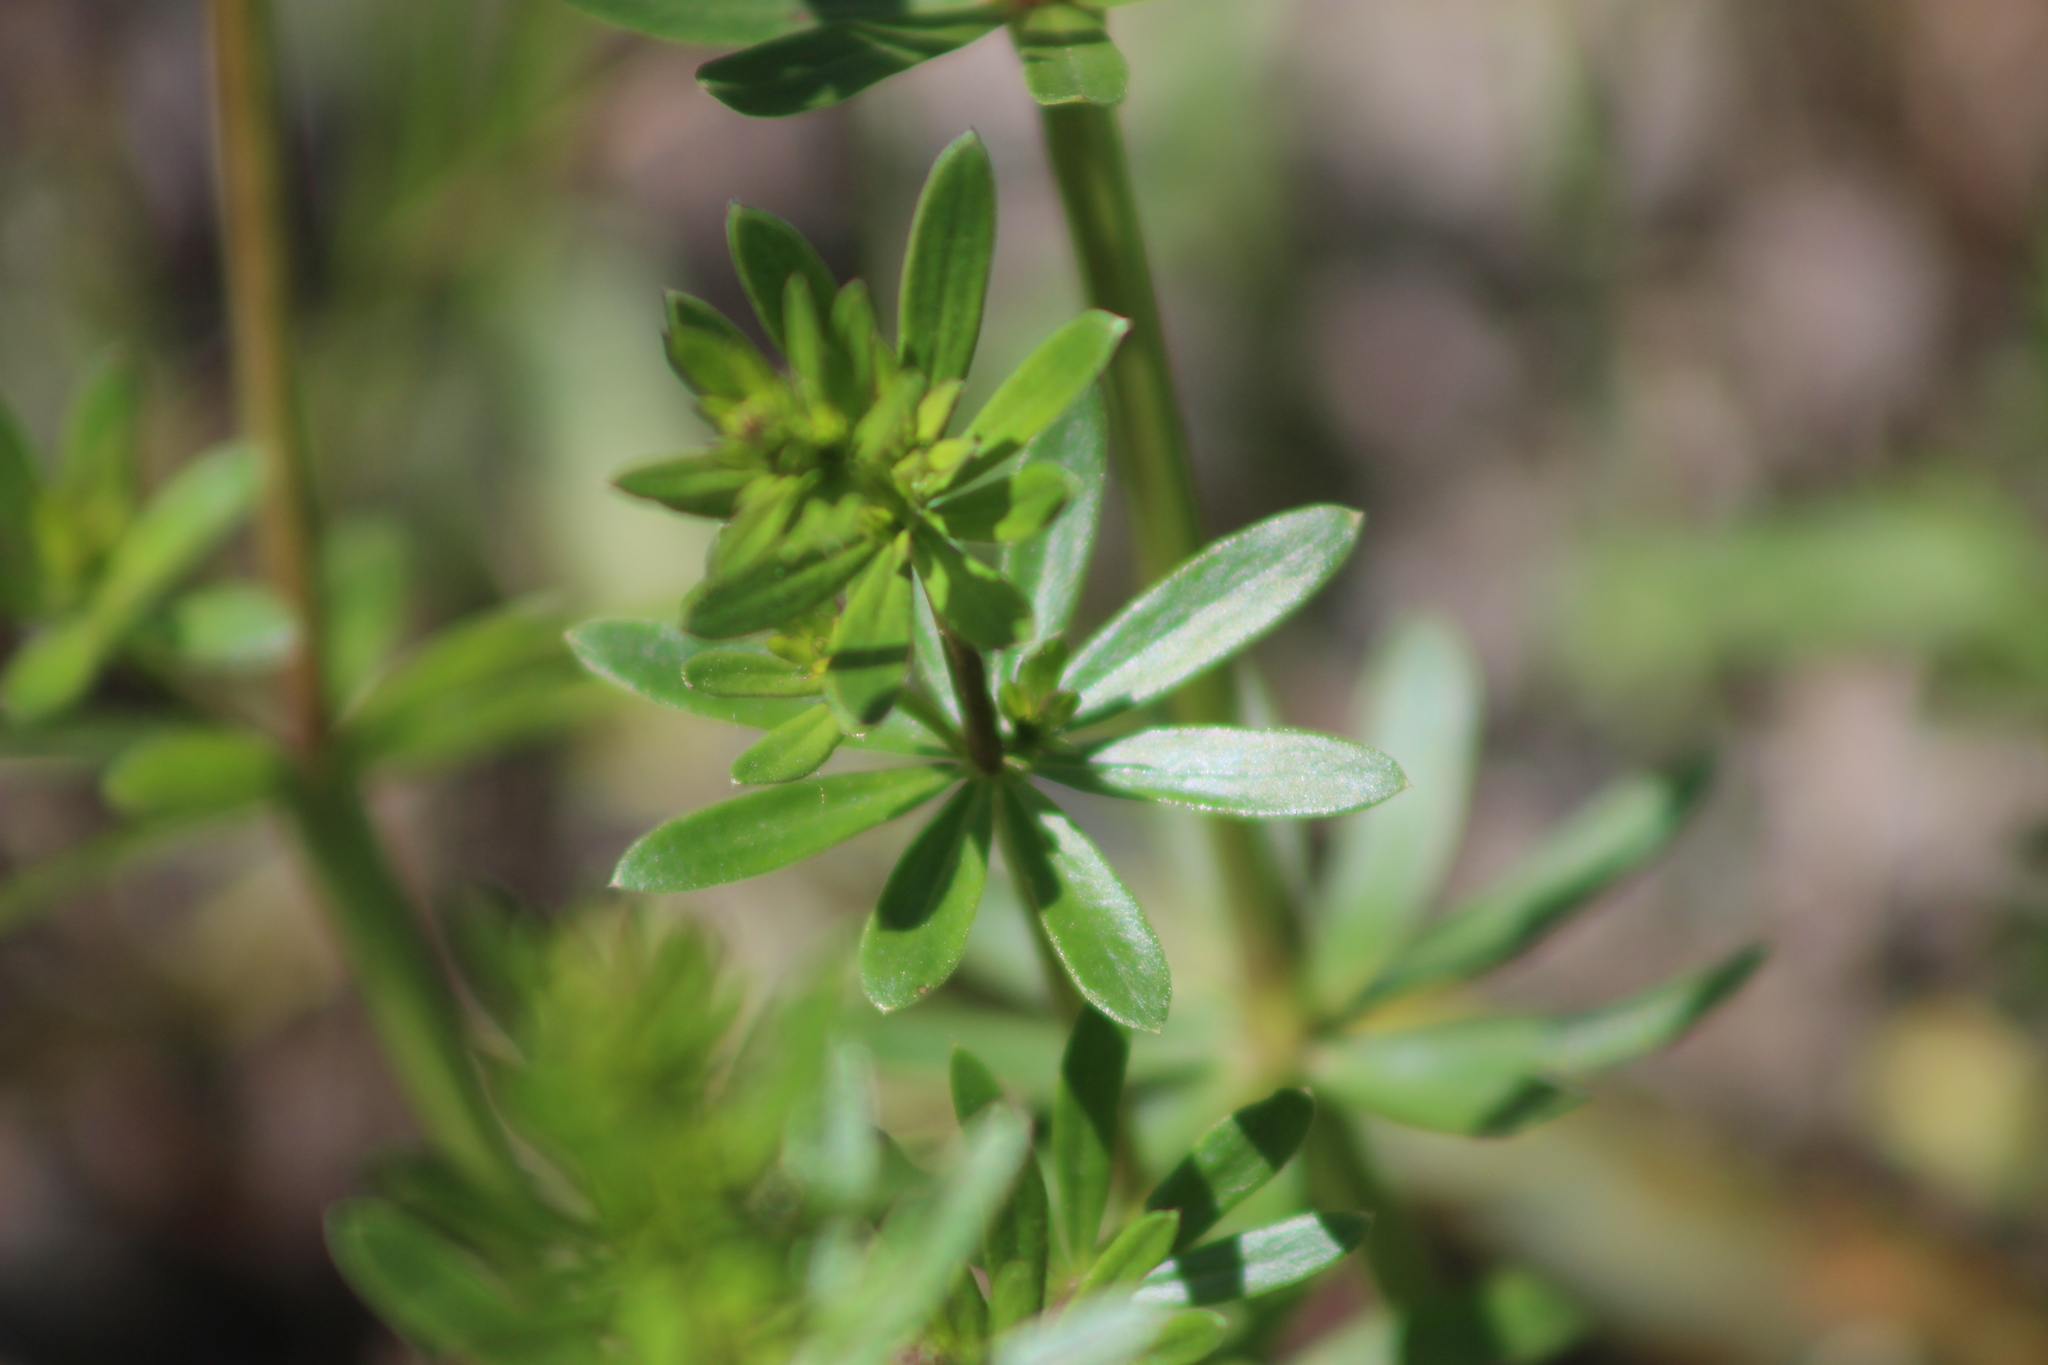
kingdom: Plantae
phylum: Tracheophyta
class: Magnoliopsida
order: Gentianales
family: Rubiaceae
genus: Galium
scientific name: Galium mollugo
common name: Hedge bedstraw
